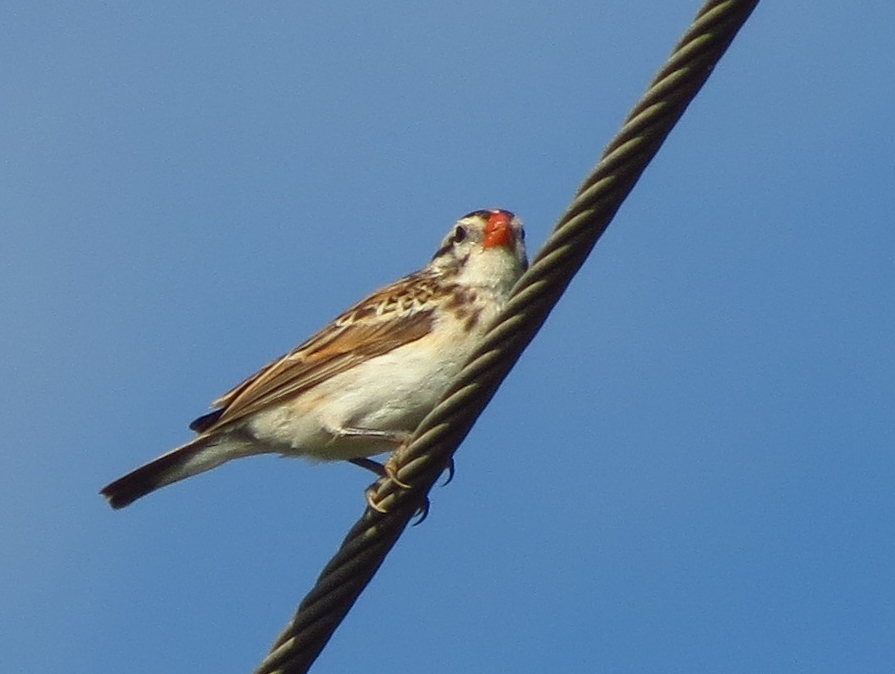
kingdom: Animalia
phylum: Chordata
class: Aves
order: Passeriformes
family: Viduidae
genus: Vidua
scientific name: Vidua macroura
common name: Pin-tailed whydah
